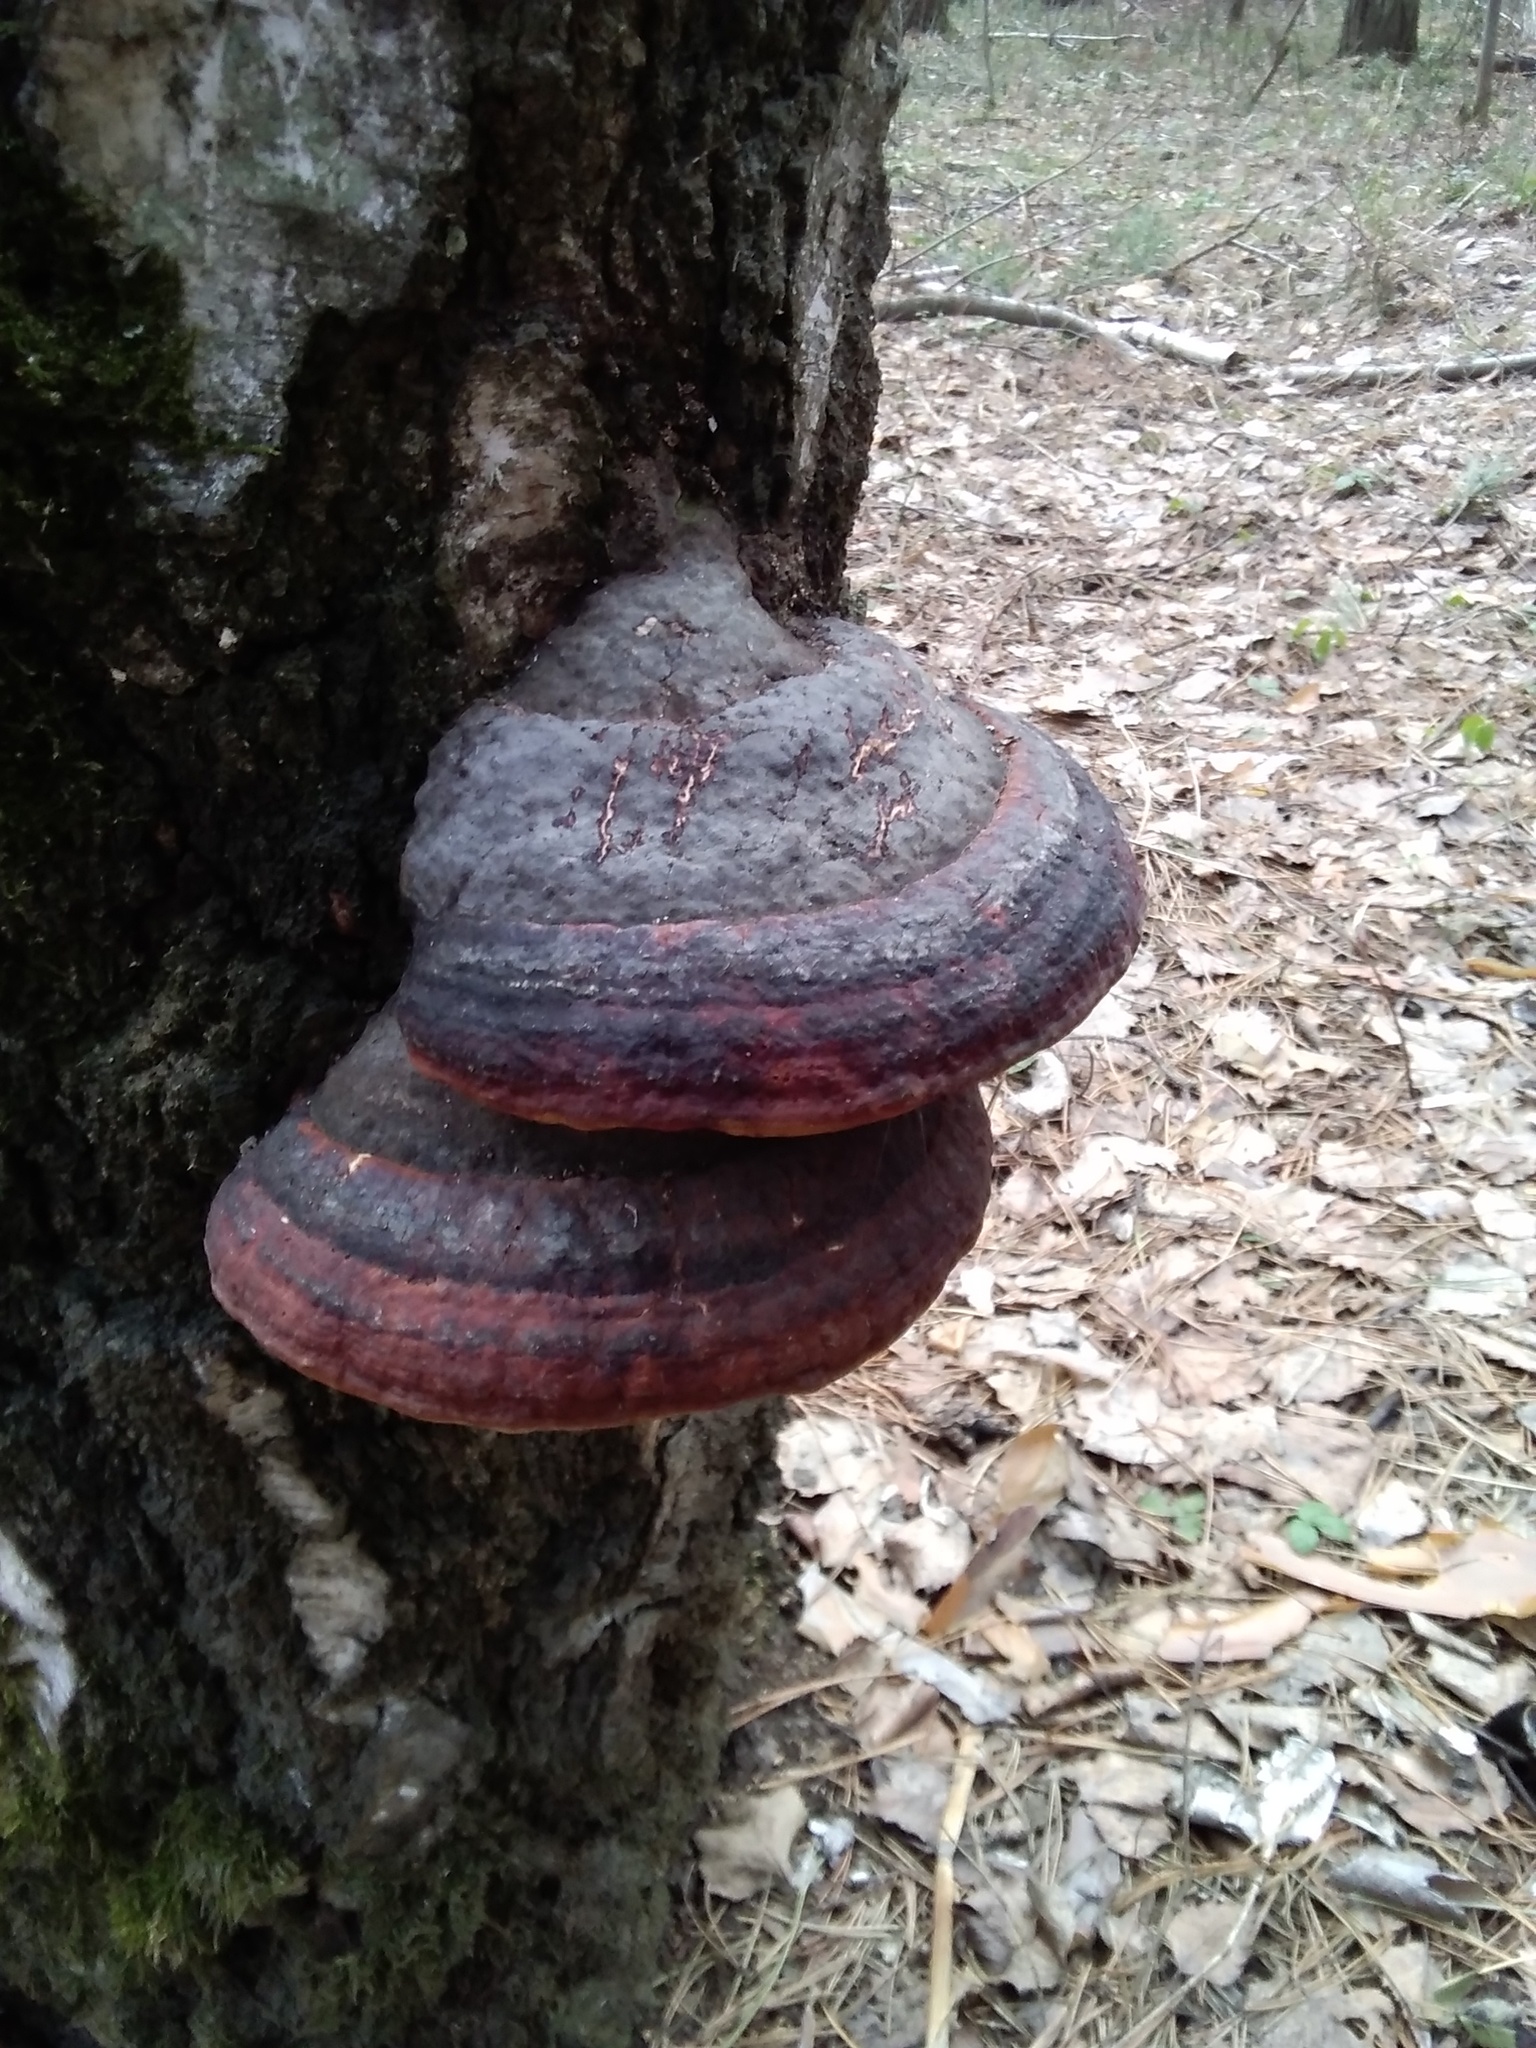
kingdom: Fungi
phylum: Basidiomycota
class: Agaricomycetes
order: Polyporales
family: Fomitopsidaceae
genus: Fomitopsis
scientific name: Fomitopsis pinicola
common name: Red-belted bracket
